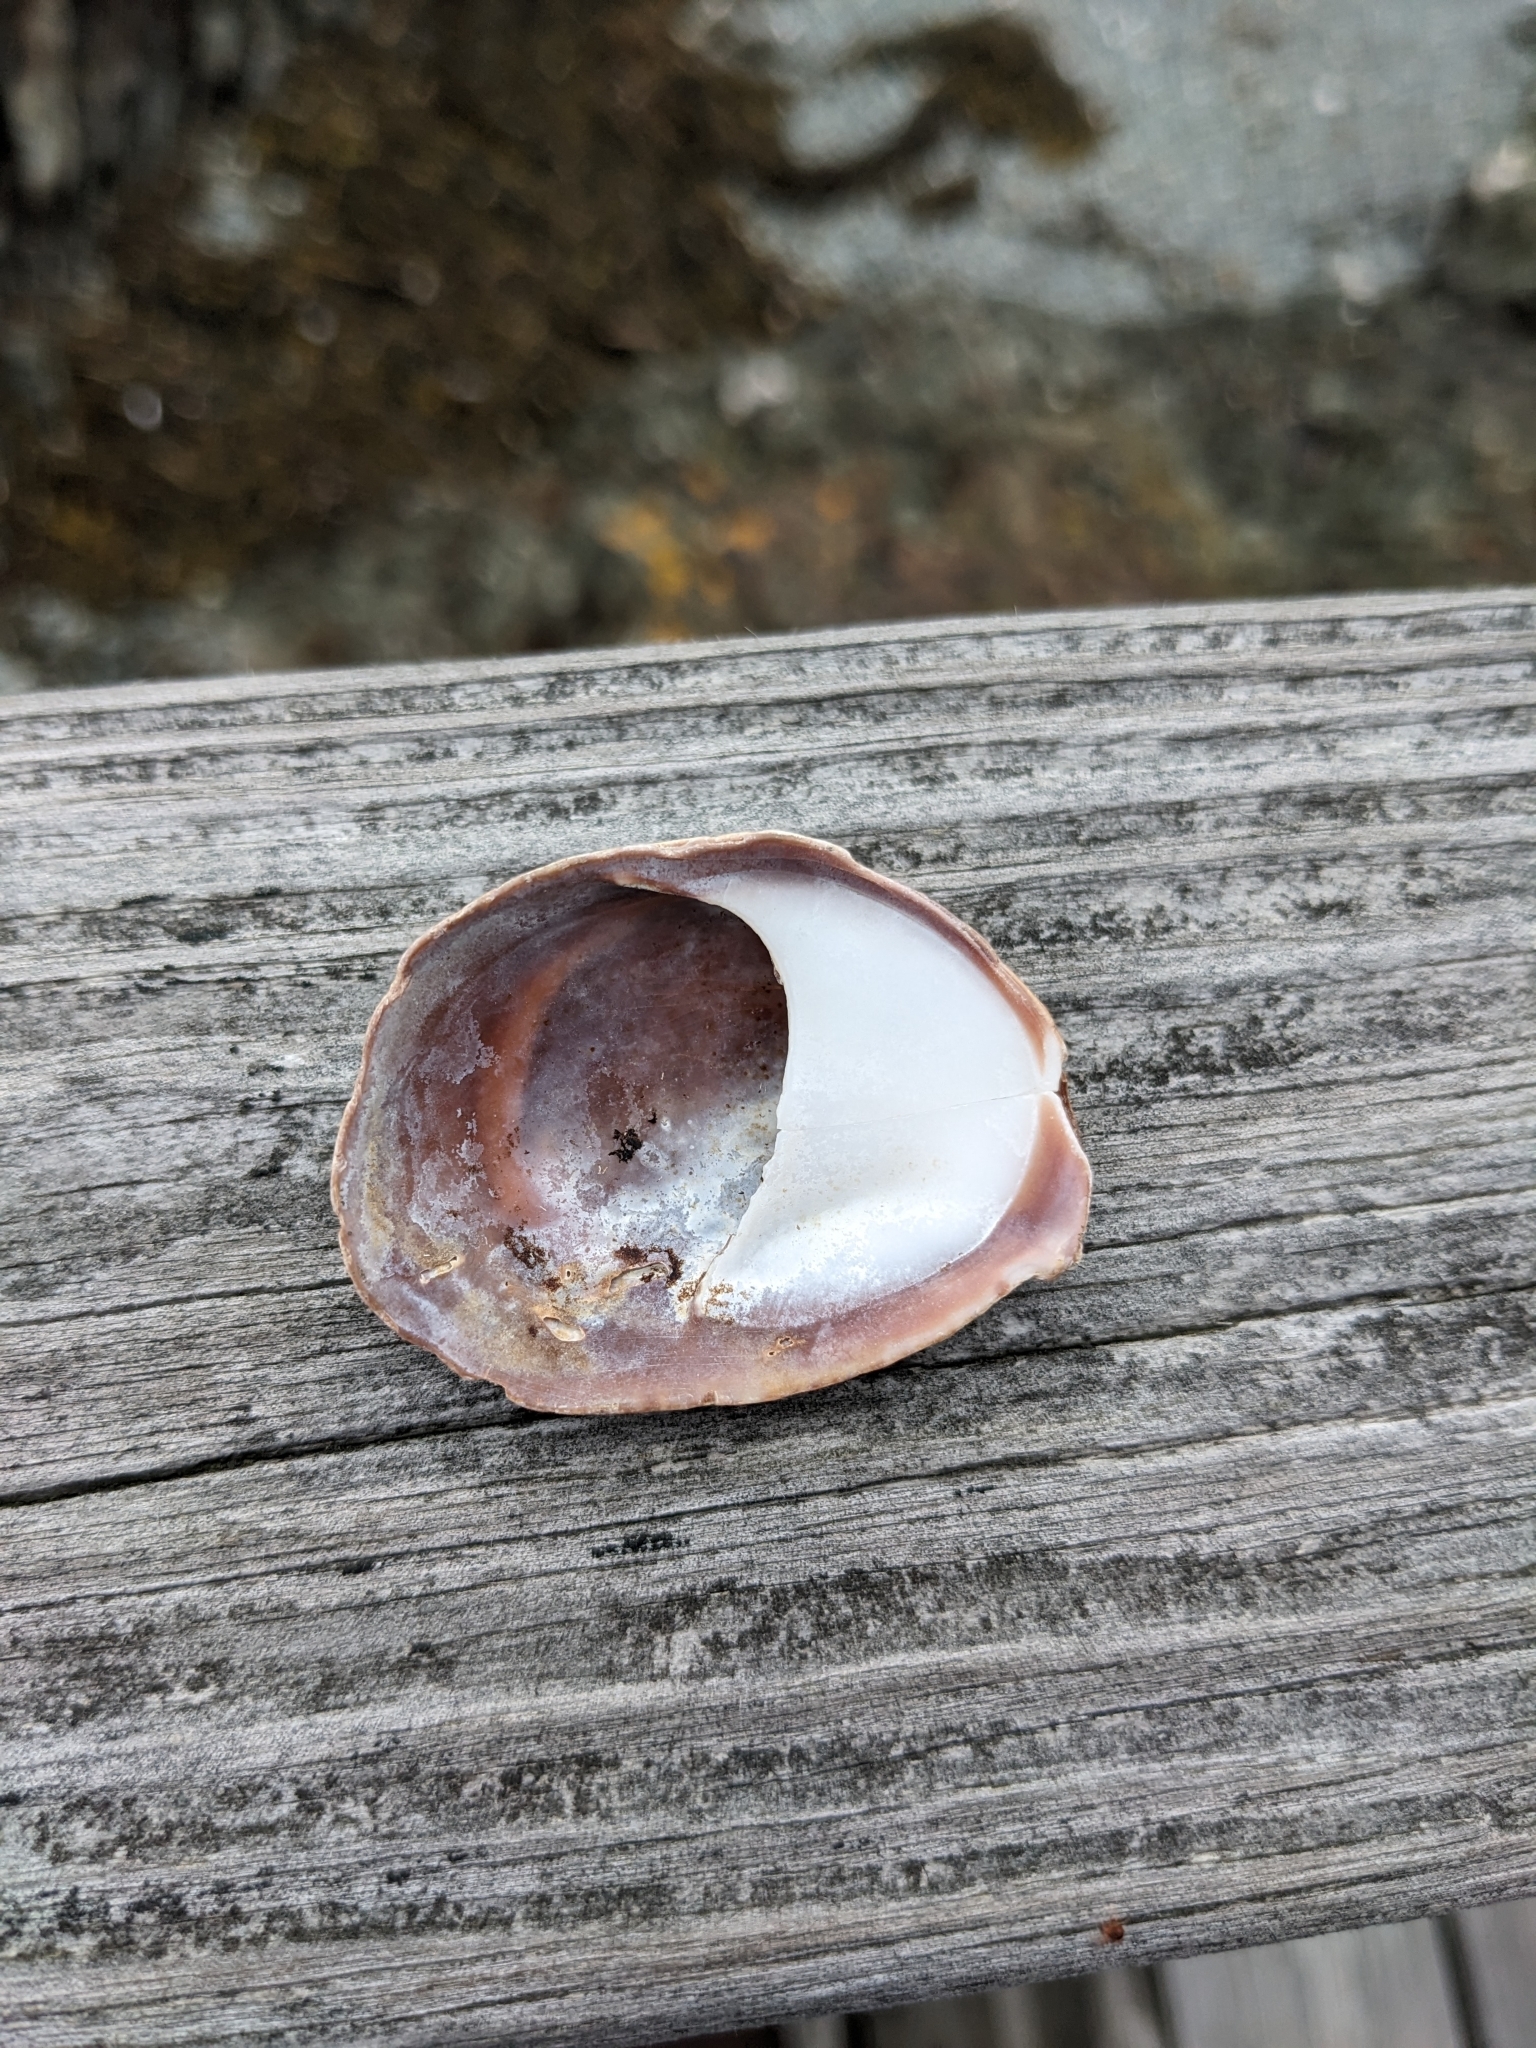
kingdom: Animalia
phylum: Mollusca
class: Gastropoda
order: Littorinimorpha
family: Calyptraeidae
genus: Crepidula
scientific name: Crepidula fornicata
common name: Slipper limpet
